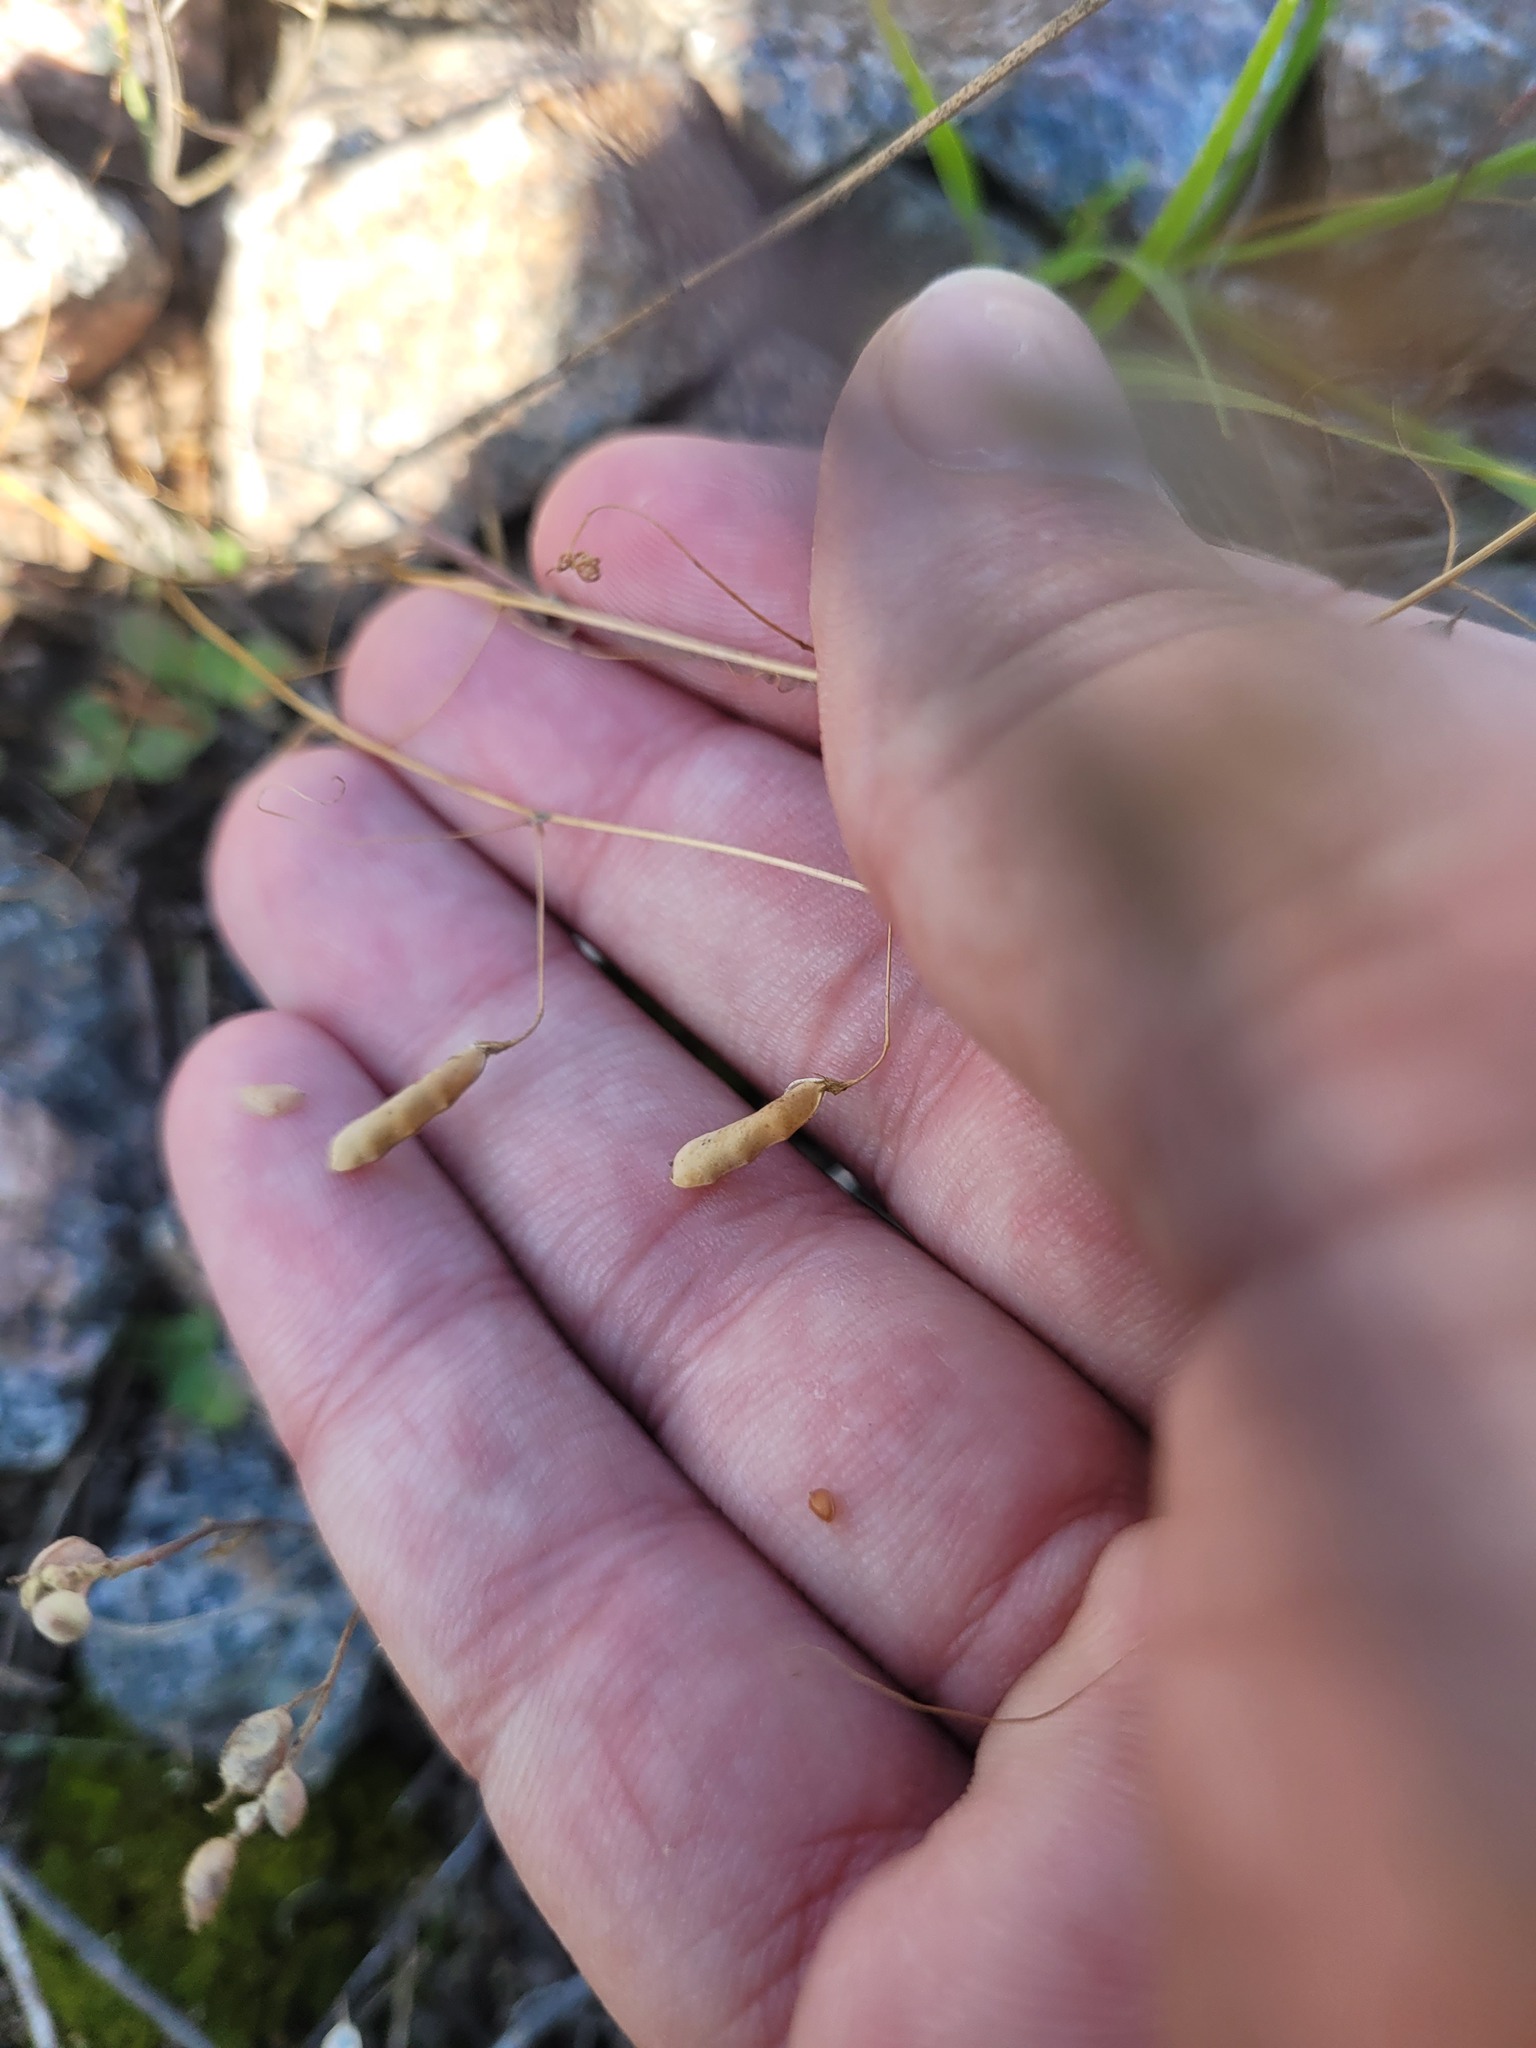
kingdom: Plantae
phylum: Tracheophyta
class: Magnoliopsida
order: Fabales
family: Fabaceae
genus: Vicia
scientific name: Vicia tetrasperma
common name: Smooth tare
